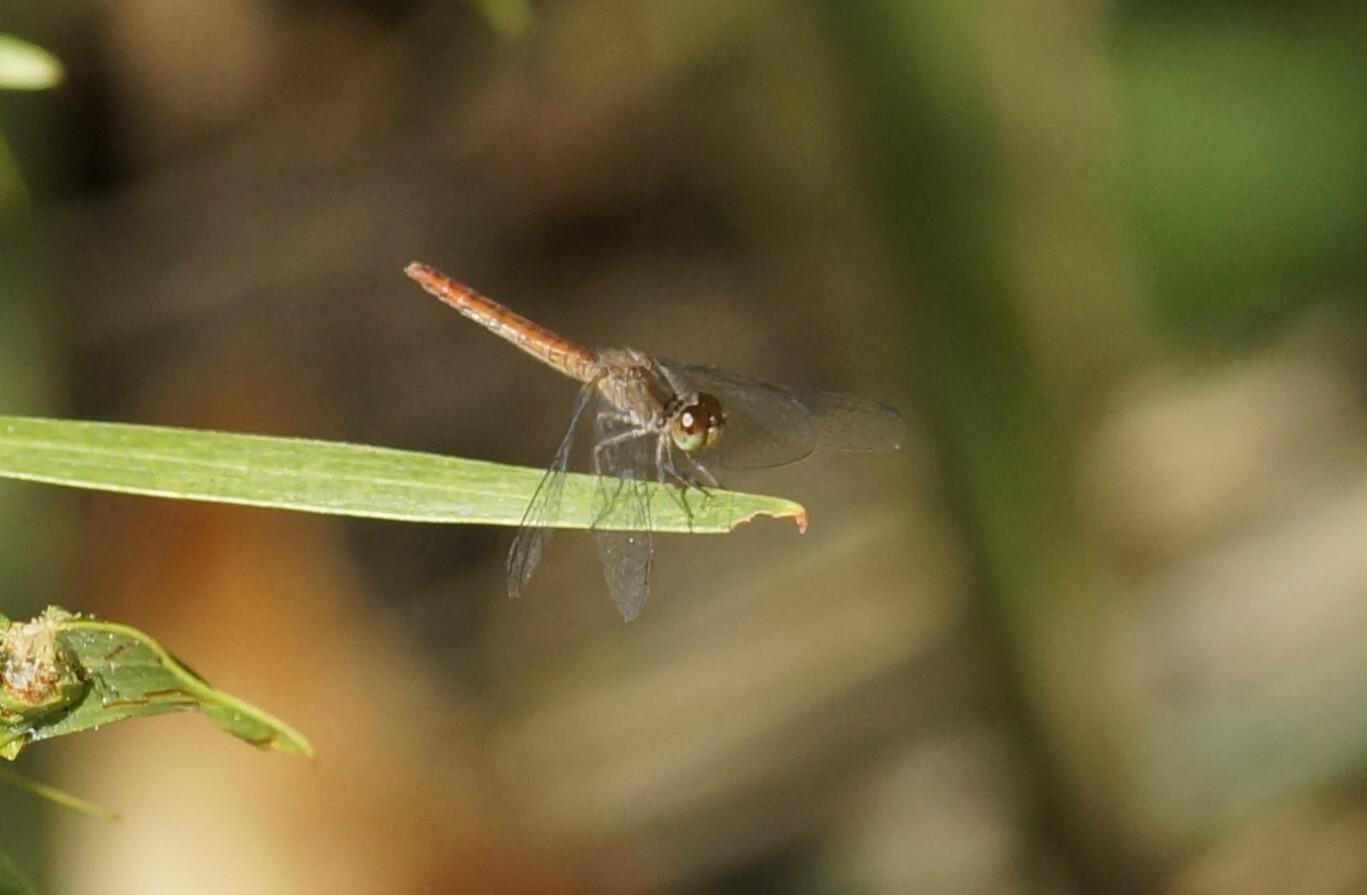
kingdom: Animalia
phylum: Arthropoda
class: Insecta
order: Odonata
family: Libellulidae
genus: Nannodiplax
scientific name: Nannodiplax rubra
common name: Pygmy percher
